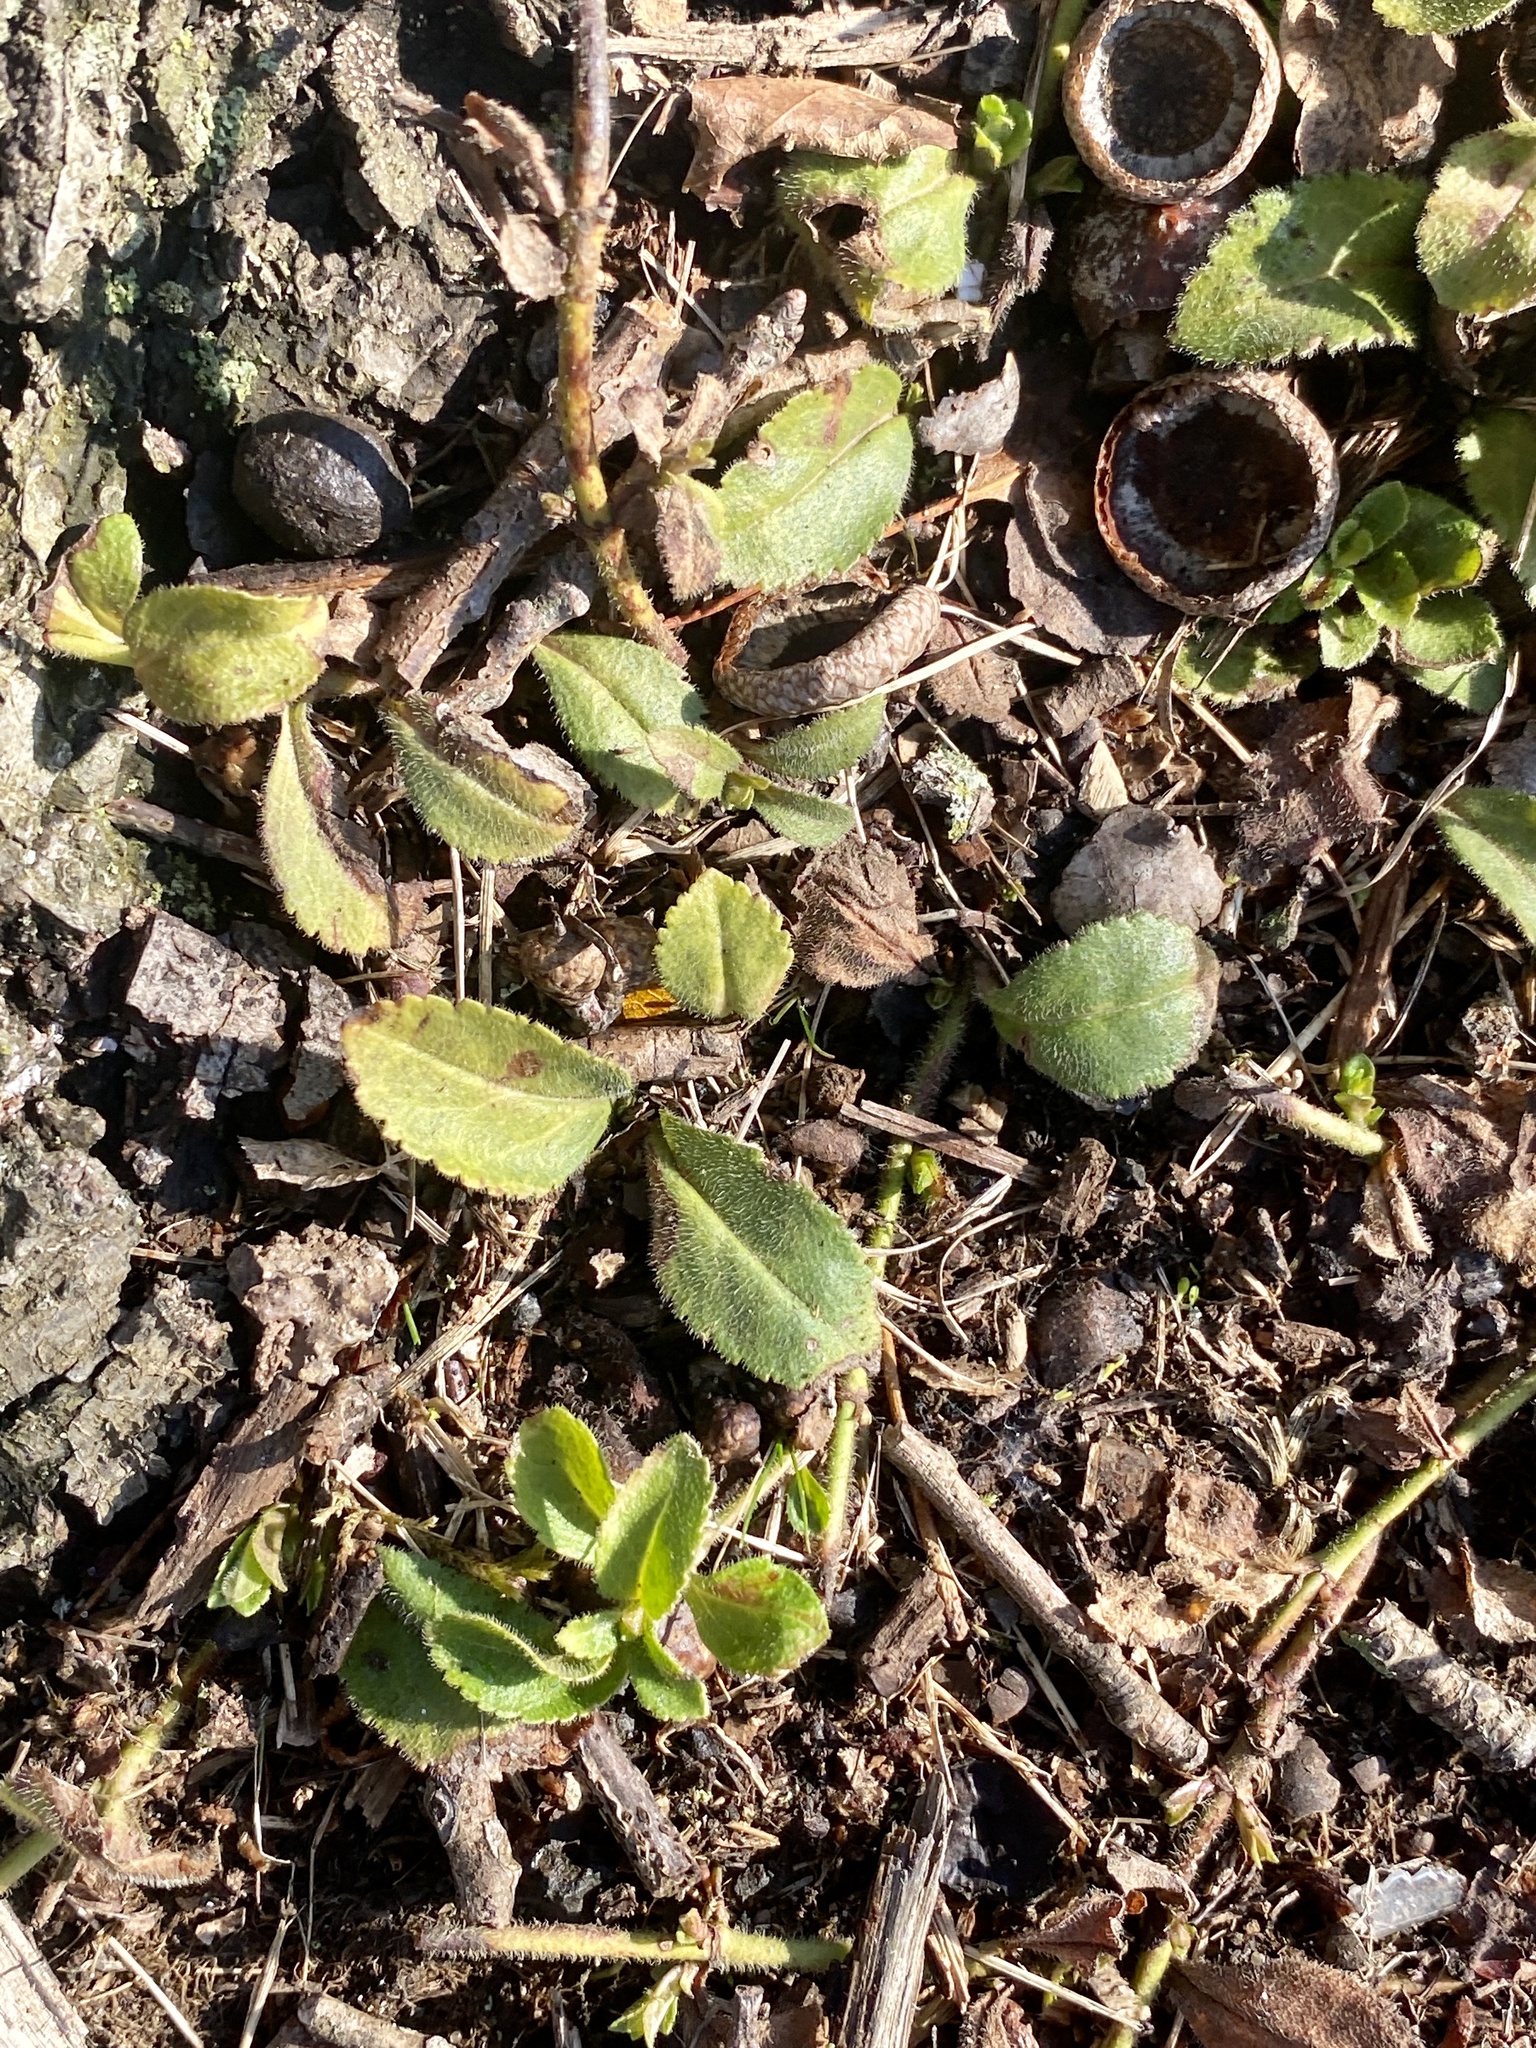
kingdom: Plantae
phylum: Tracheophyta
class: Magnoliopsida
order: Lamiales
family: Plantaginaceae
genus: Veronica
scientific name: Veronica officinalis
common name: Common speedwell
